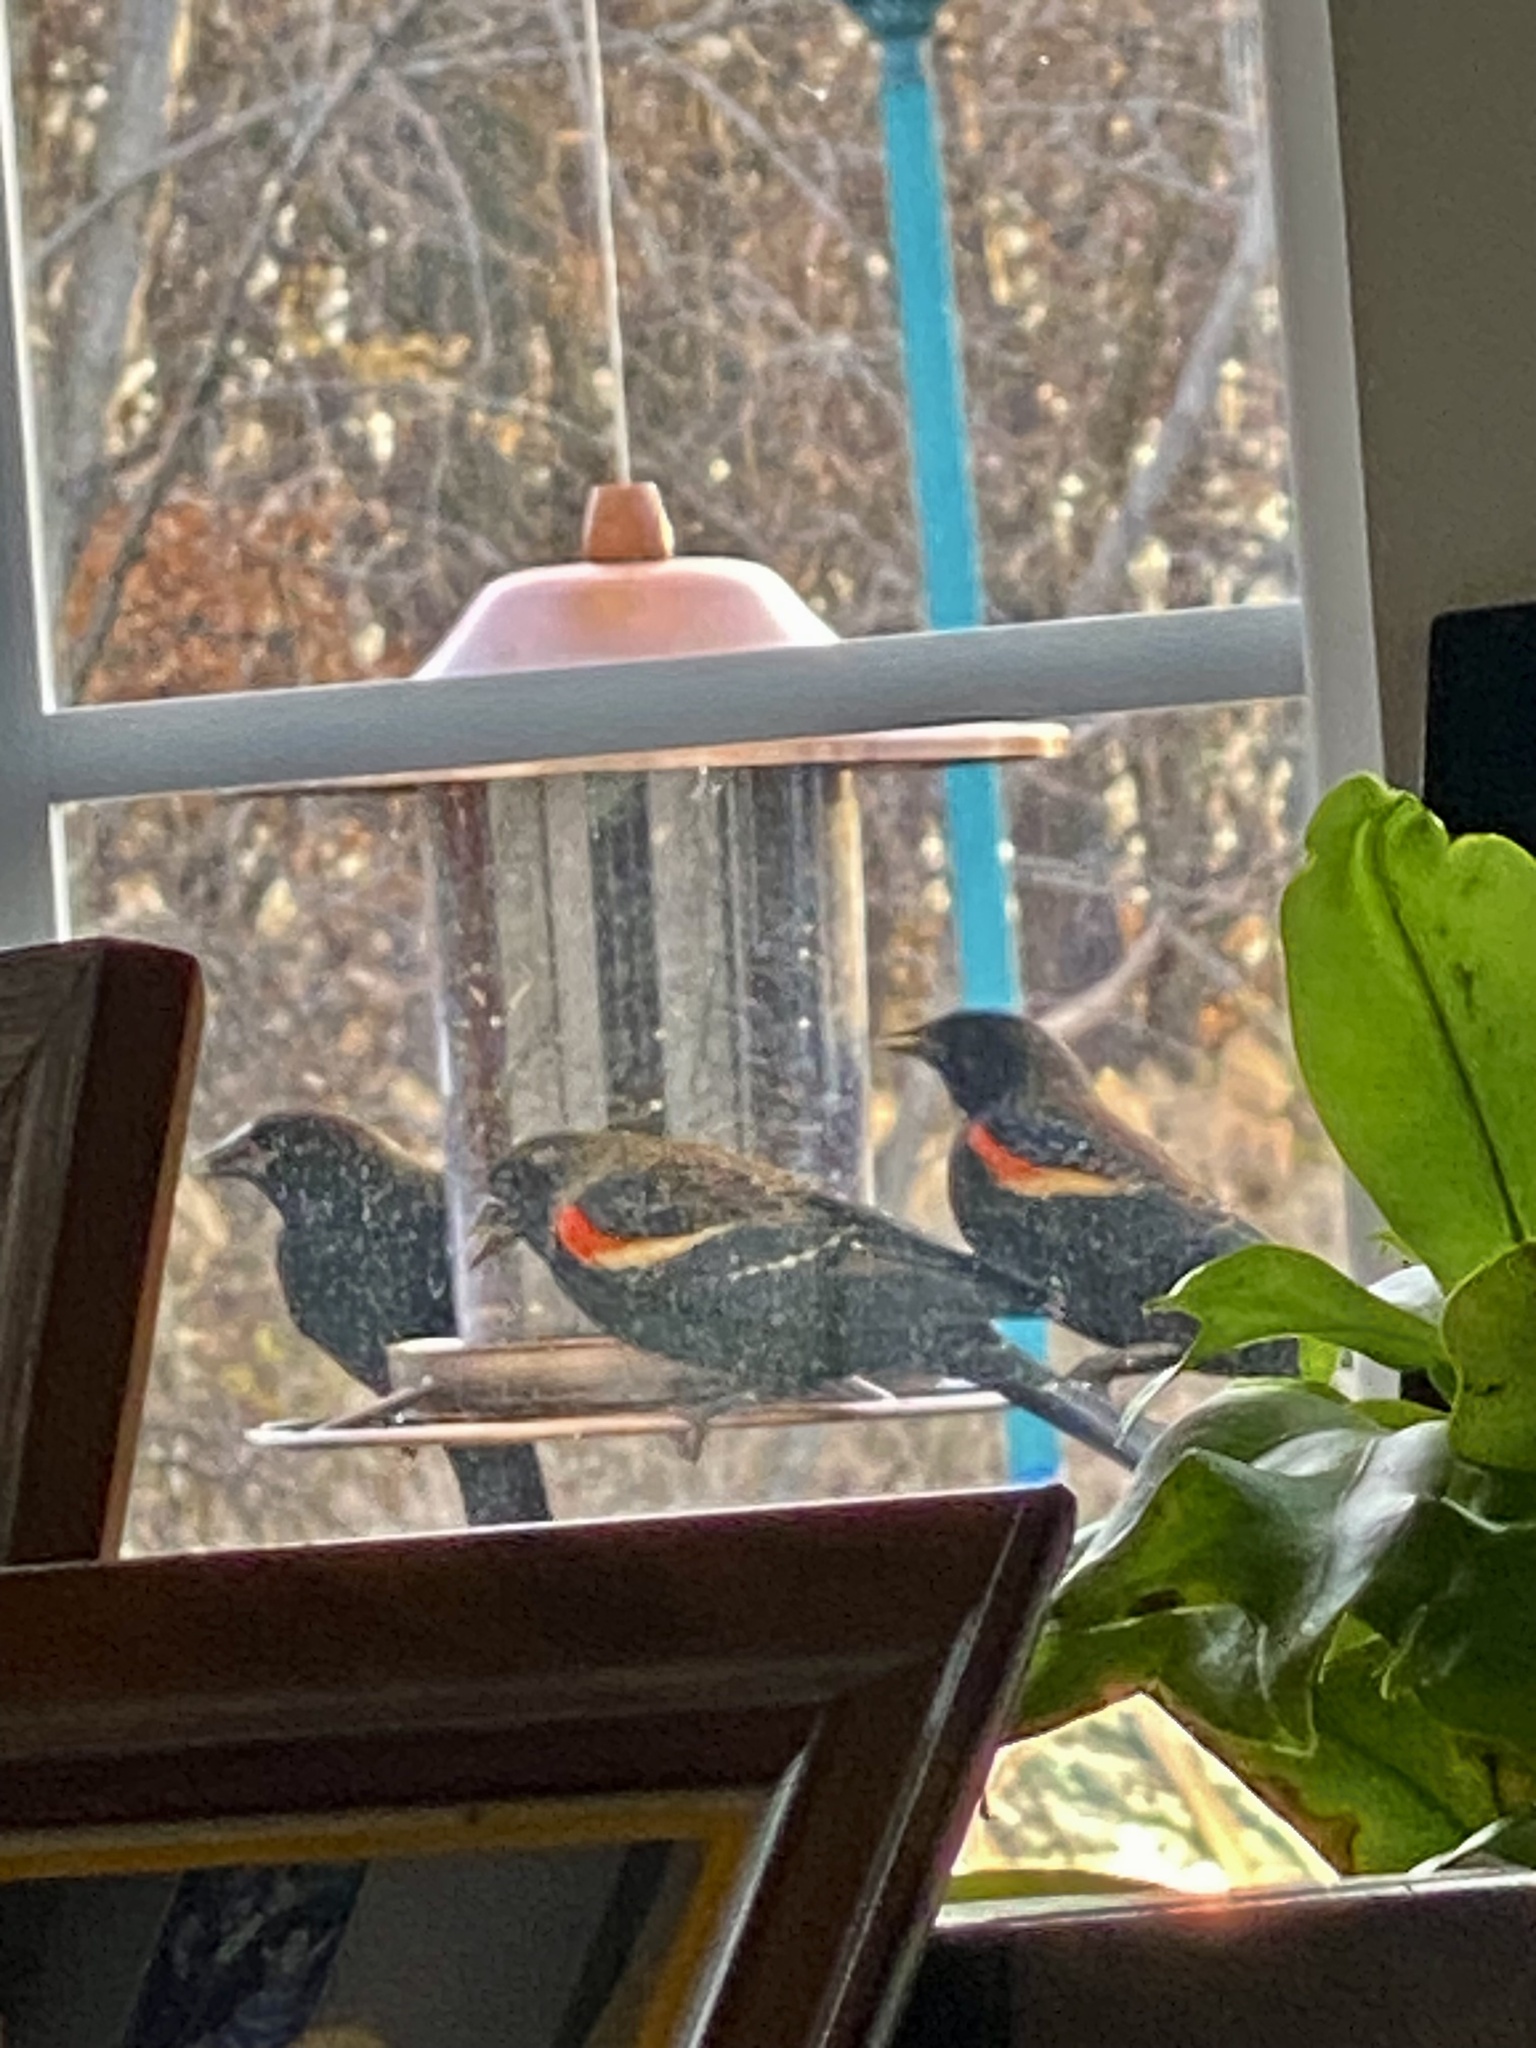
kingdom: Animalia
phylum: Chordata
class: Aves
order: Passeriformes
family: Icteridae
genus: Agelaius
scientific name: Agelaius phoeniceus
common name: Red-winged blackbird
